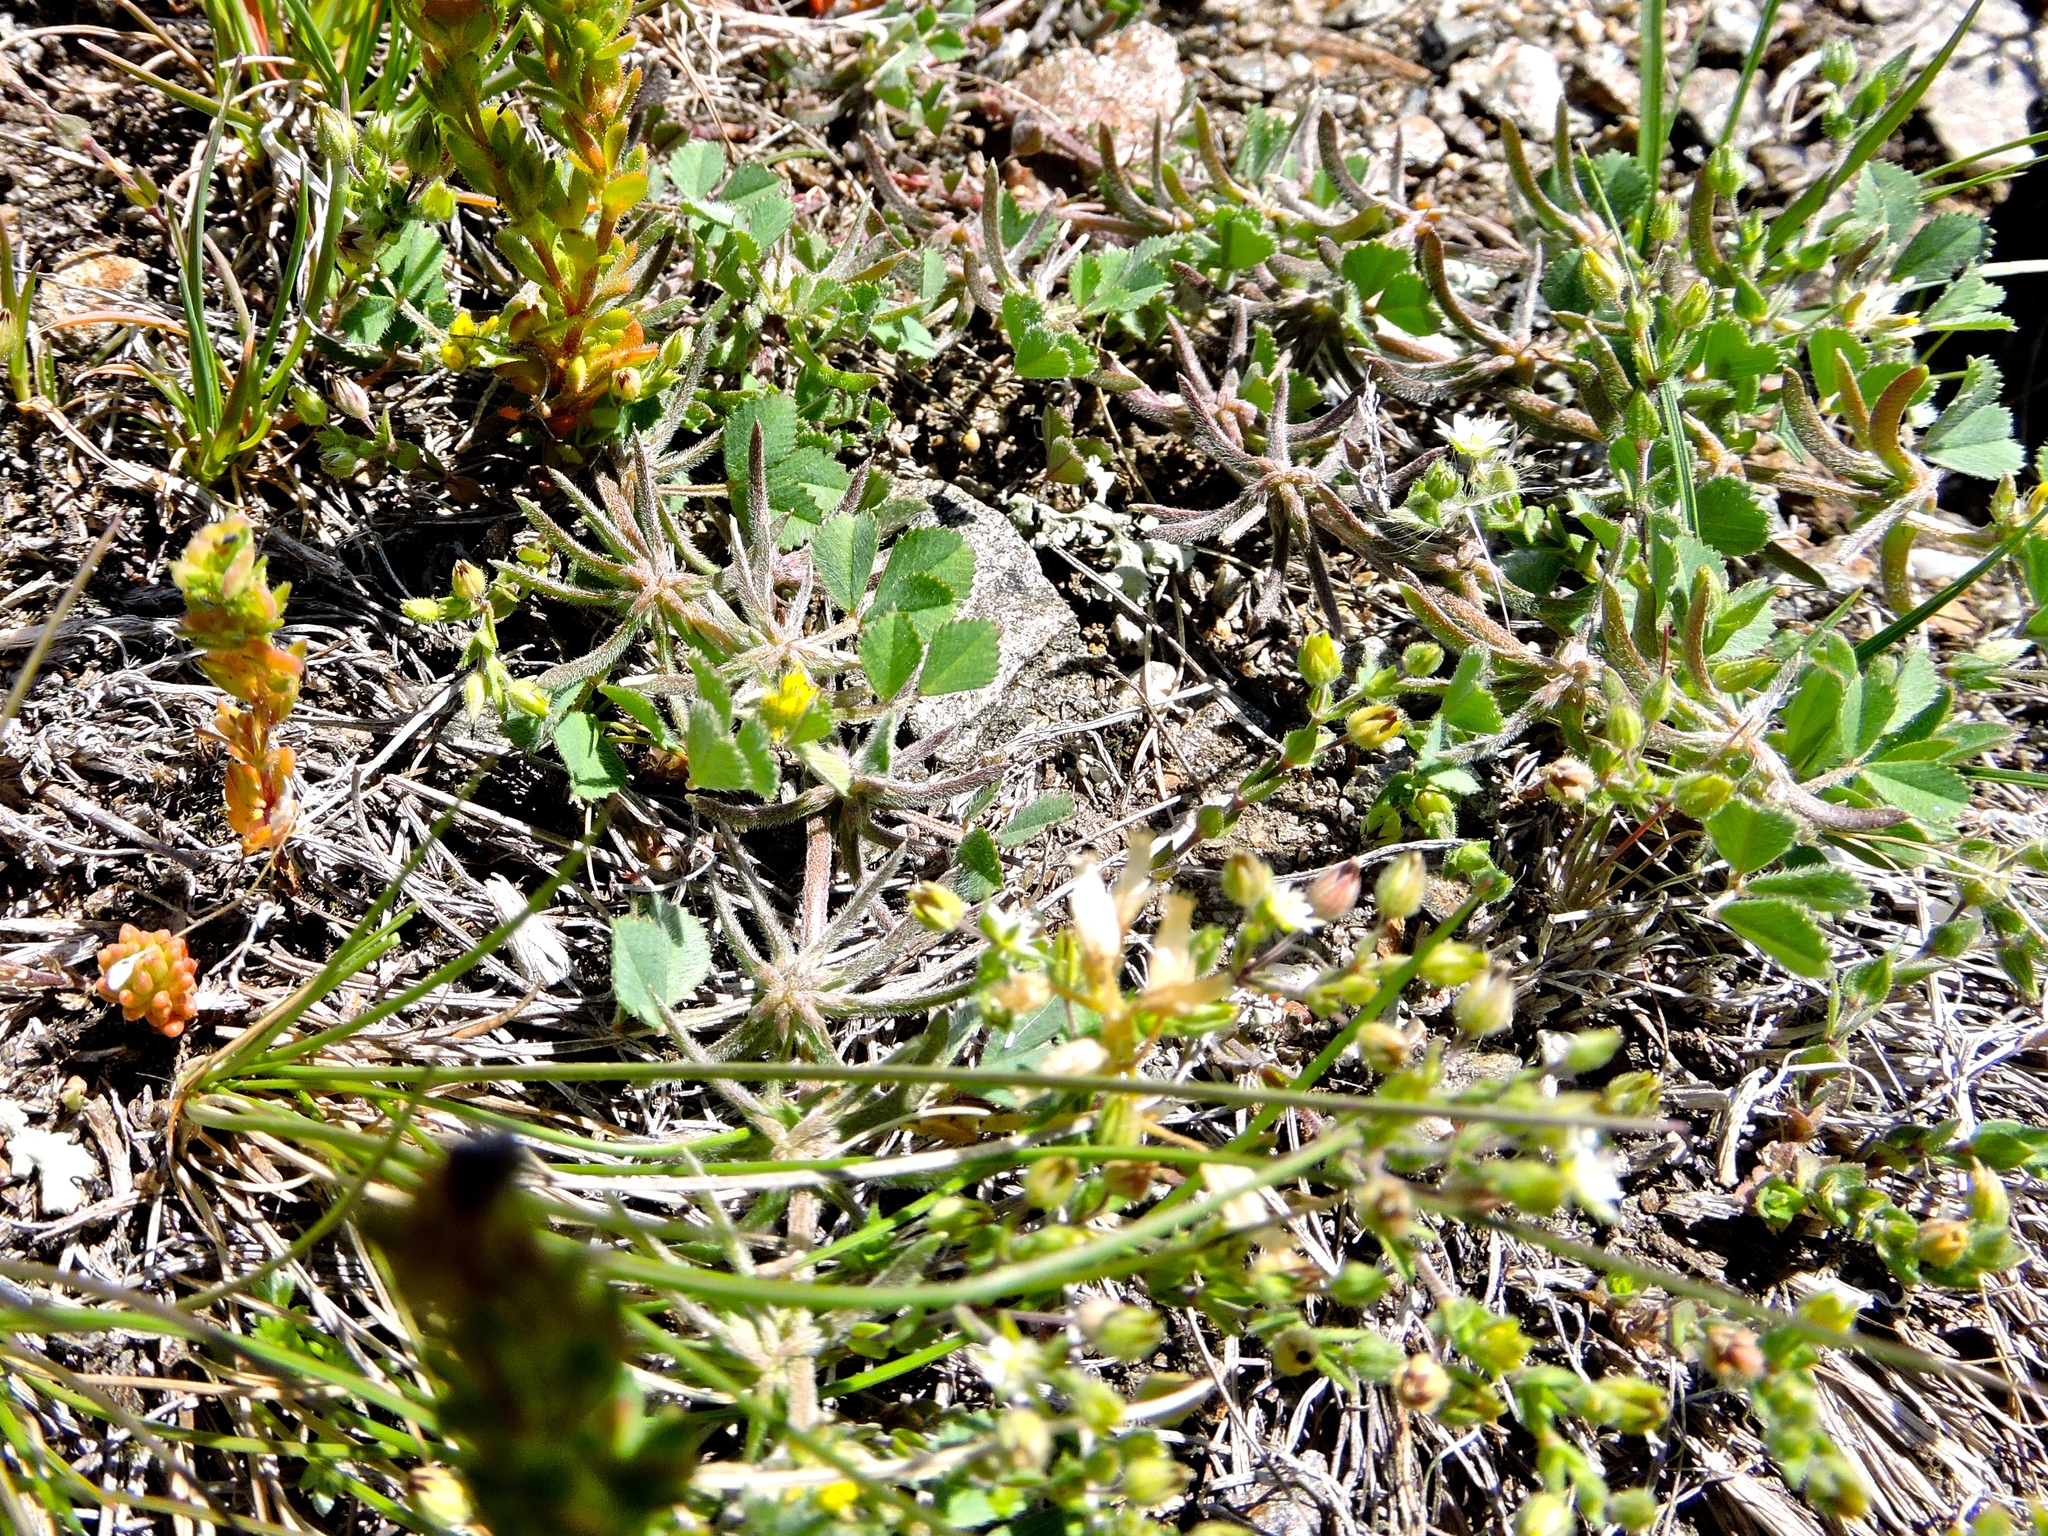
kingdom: Plantae
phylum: Tracheophyta
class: Magnoliopsida
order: Fabales
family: Fabaceae
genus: Medicago
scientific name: Medicago monspeliaca
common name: Hairy medick
